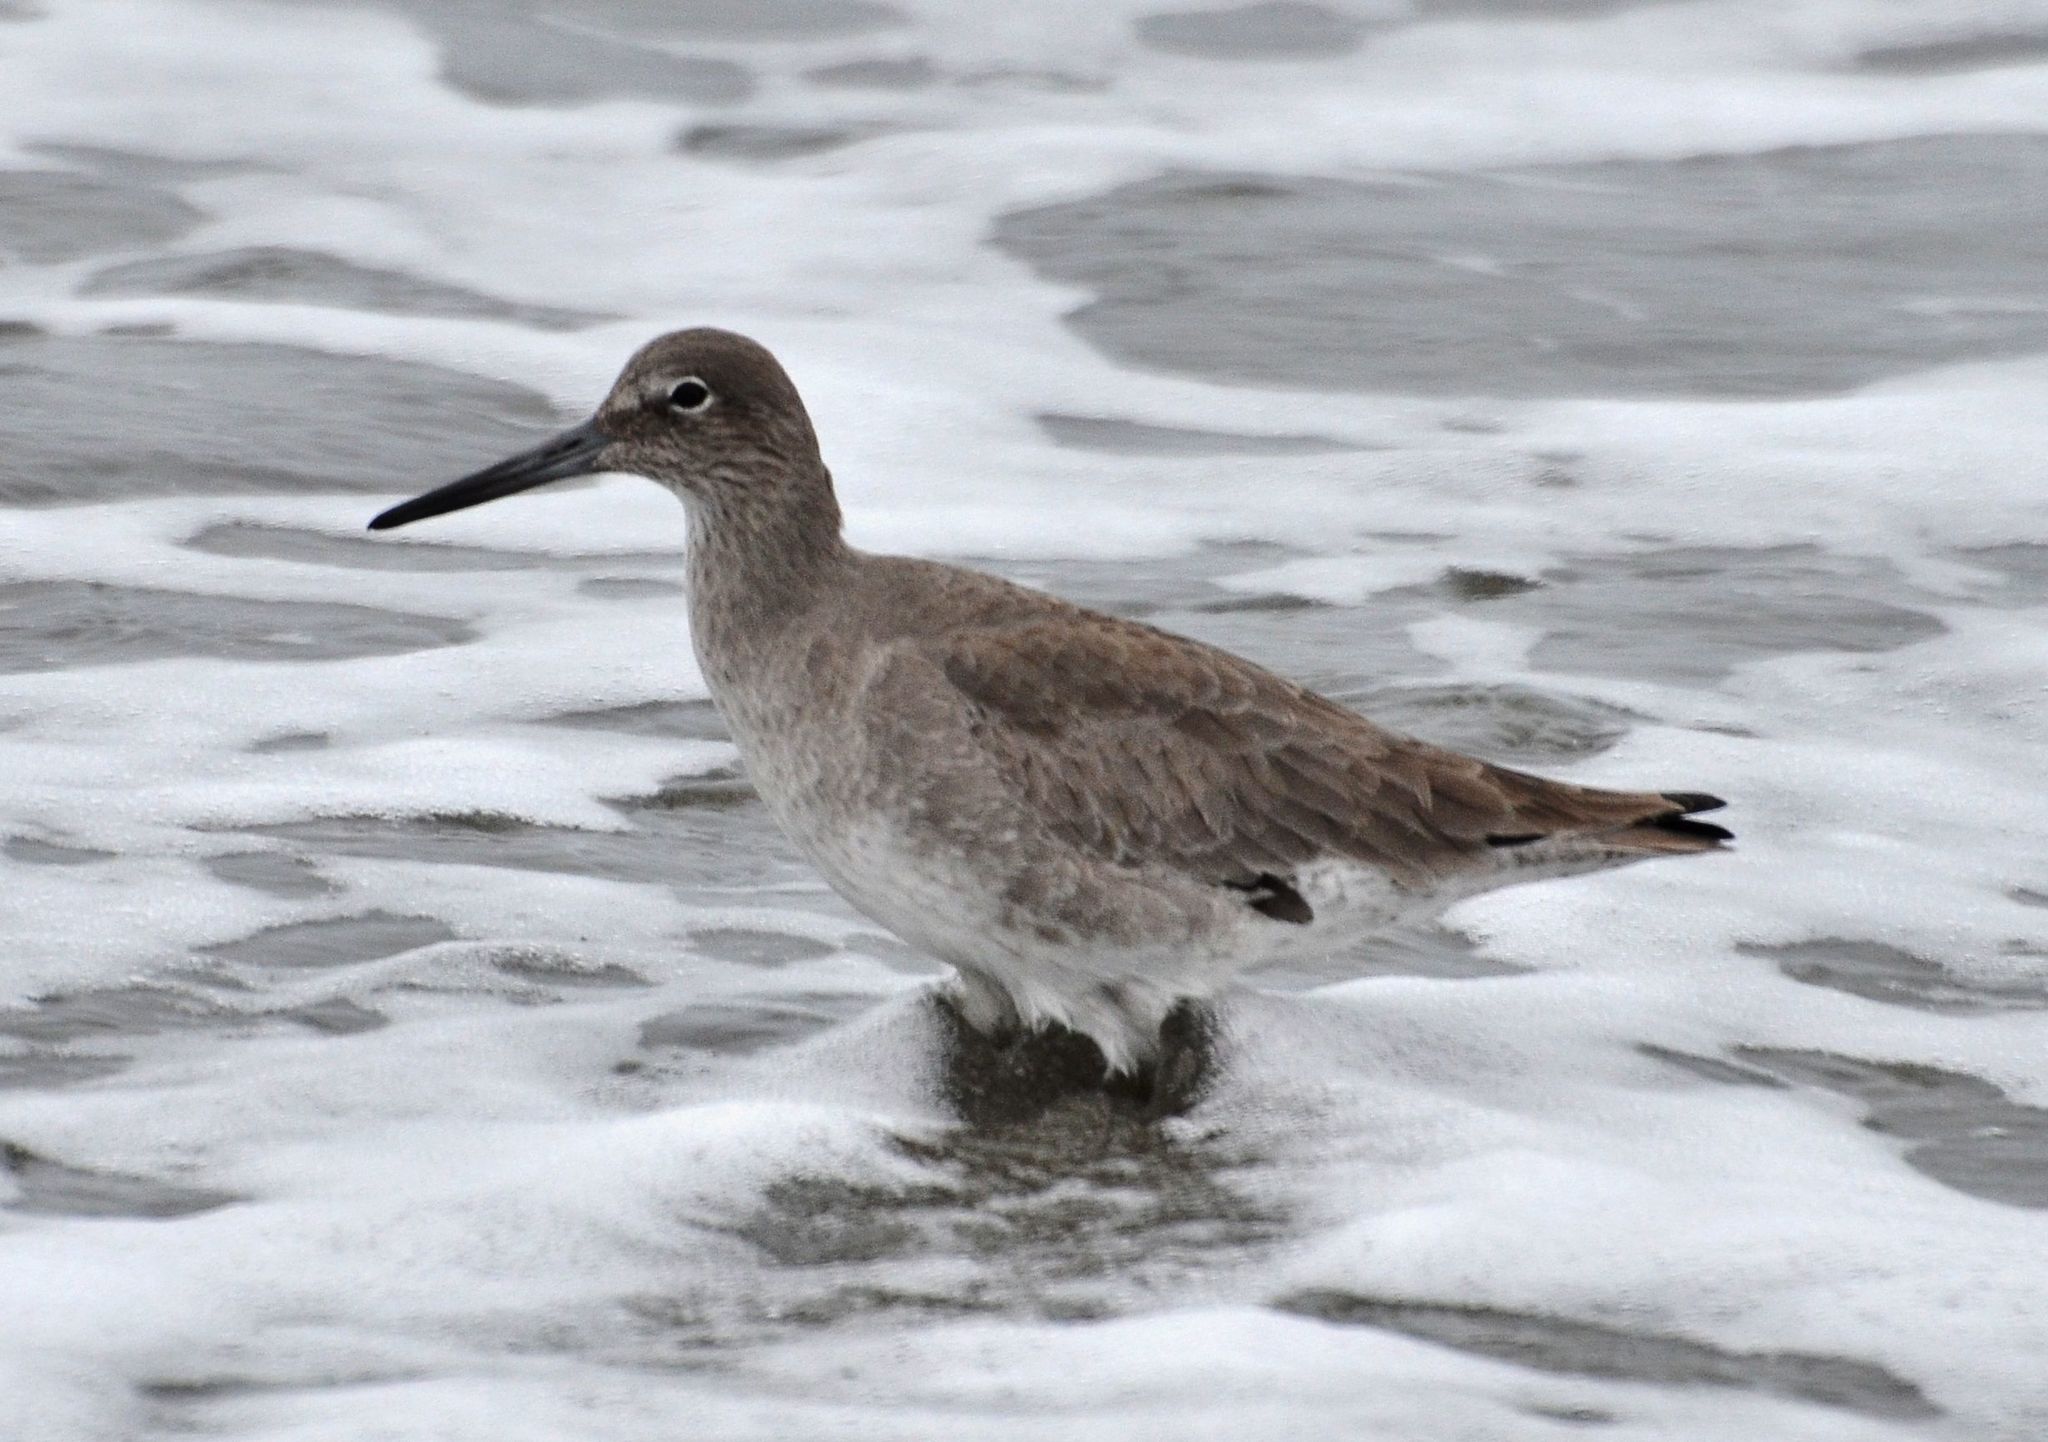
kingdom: Animalia
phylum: Chordata
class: Aves
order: Charadriiformes
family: Scolopacidae
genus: Tringa
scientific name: Tringa semipalmata
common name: Willet
